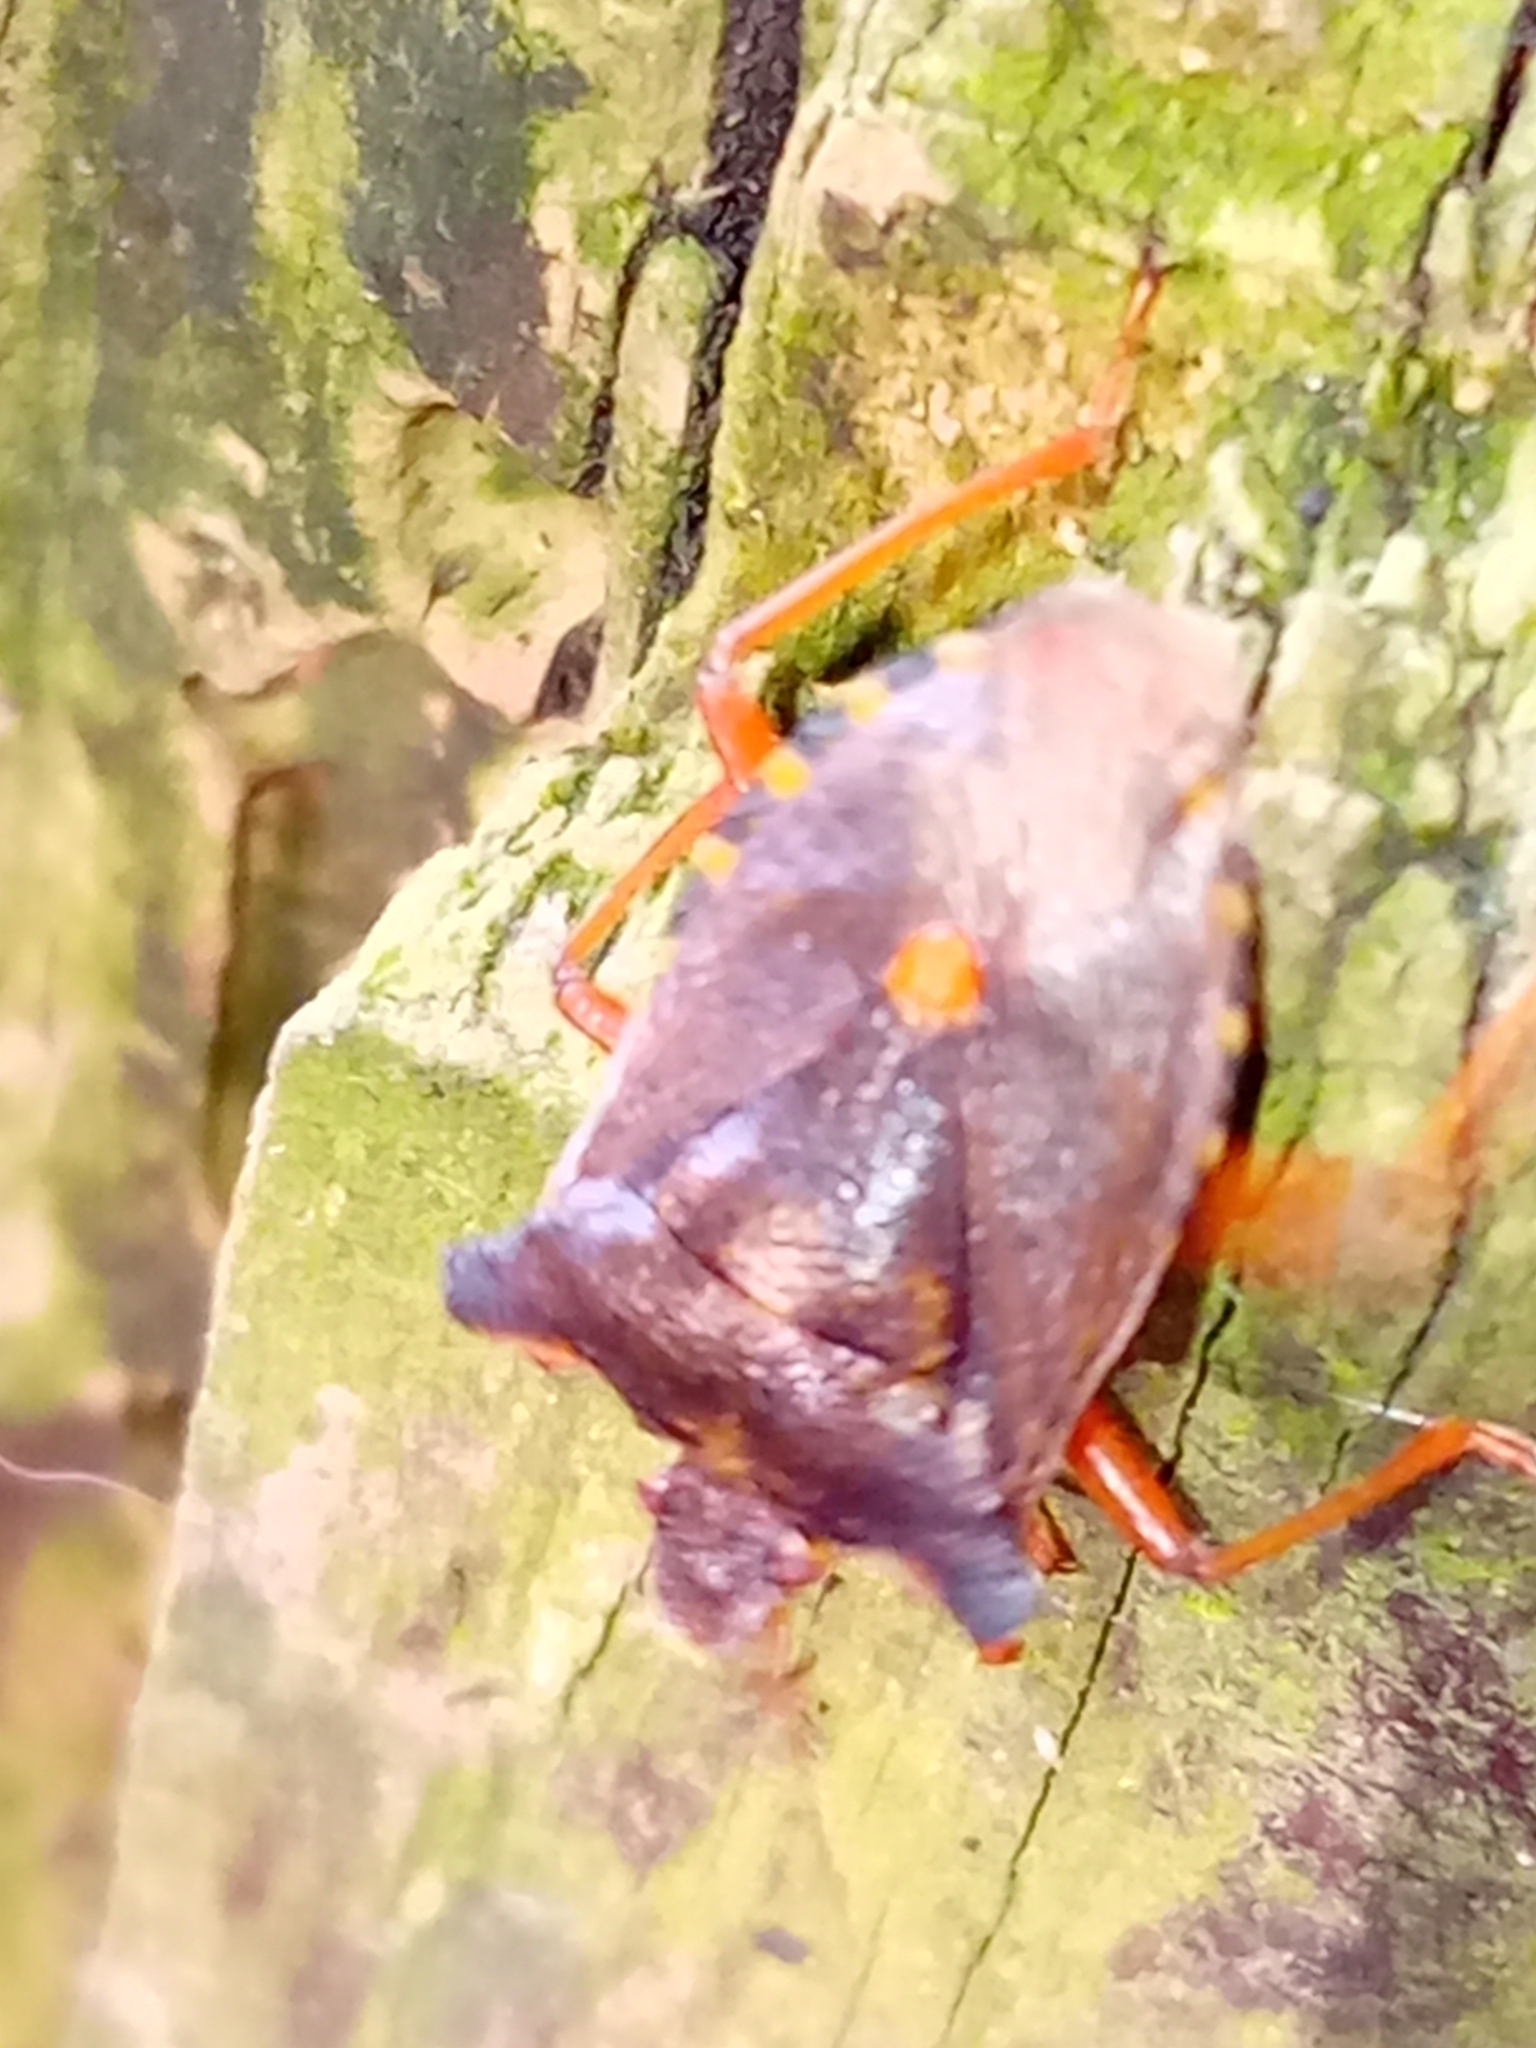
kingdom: Animalia
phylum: Arthropoda
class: Insecta
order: Hemiptera
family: Pentatomidae
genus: Pentatoma
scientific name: Pentatoma rufipes
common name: Forest bug
